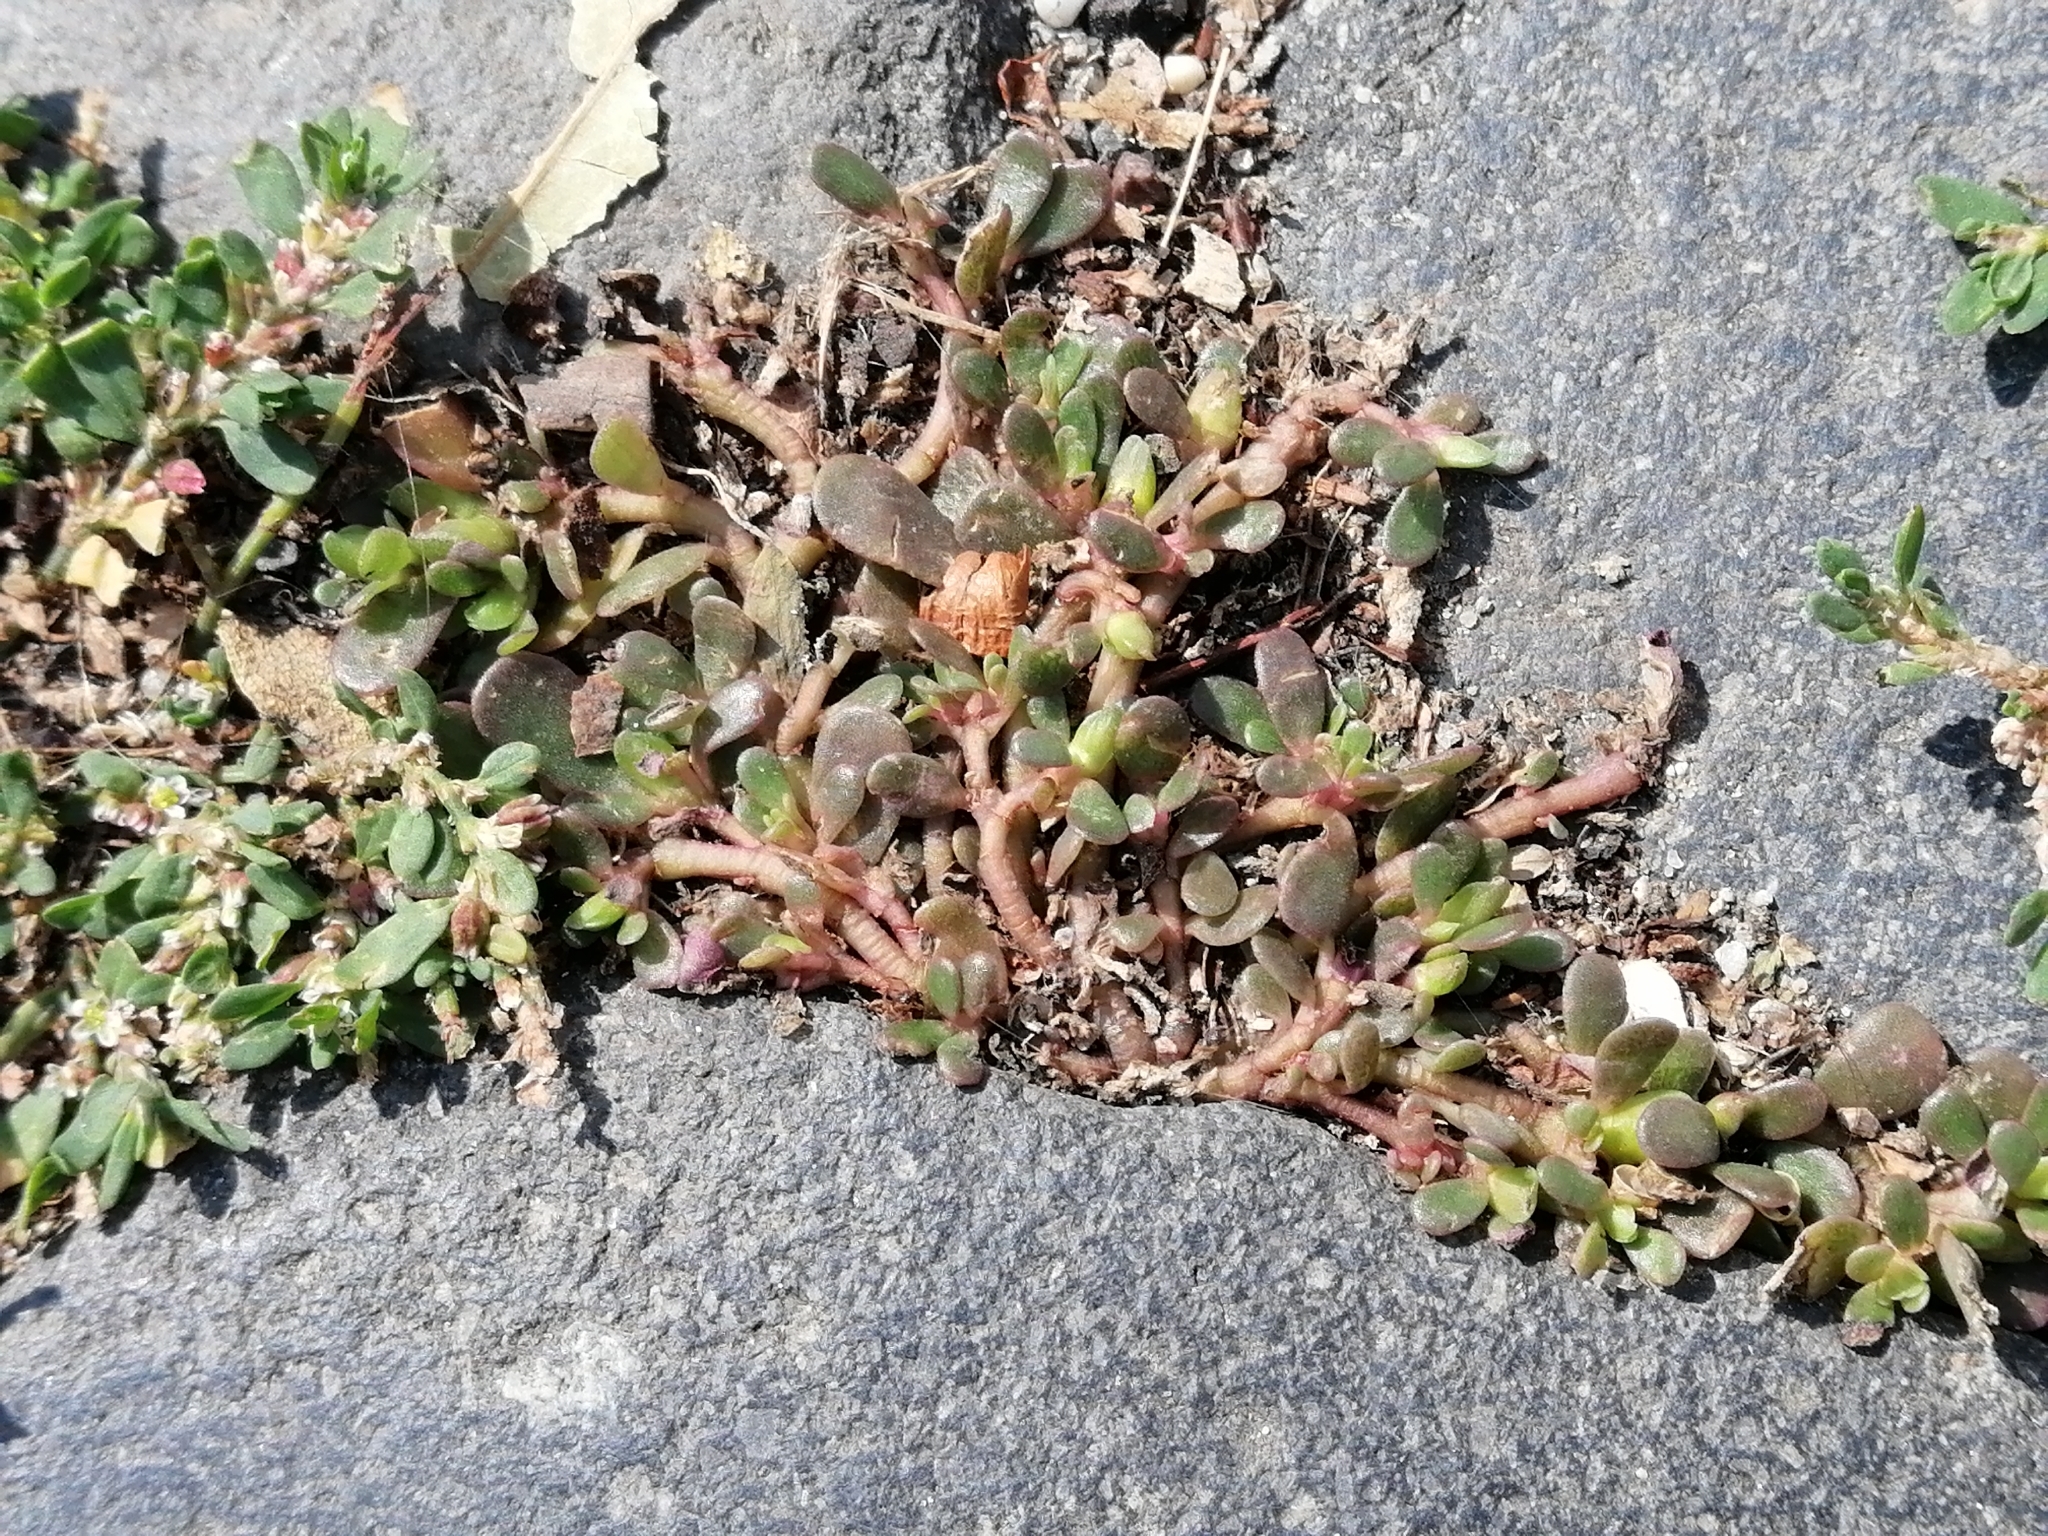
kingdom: Plantae
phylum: Tracheophyta
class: Magnoliopsida
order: Caryophyllales
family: Portulacaceae
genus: Portulaca
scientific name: Portulaca oleracea
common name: Common purslane
